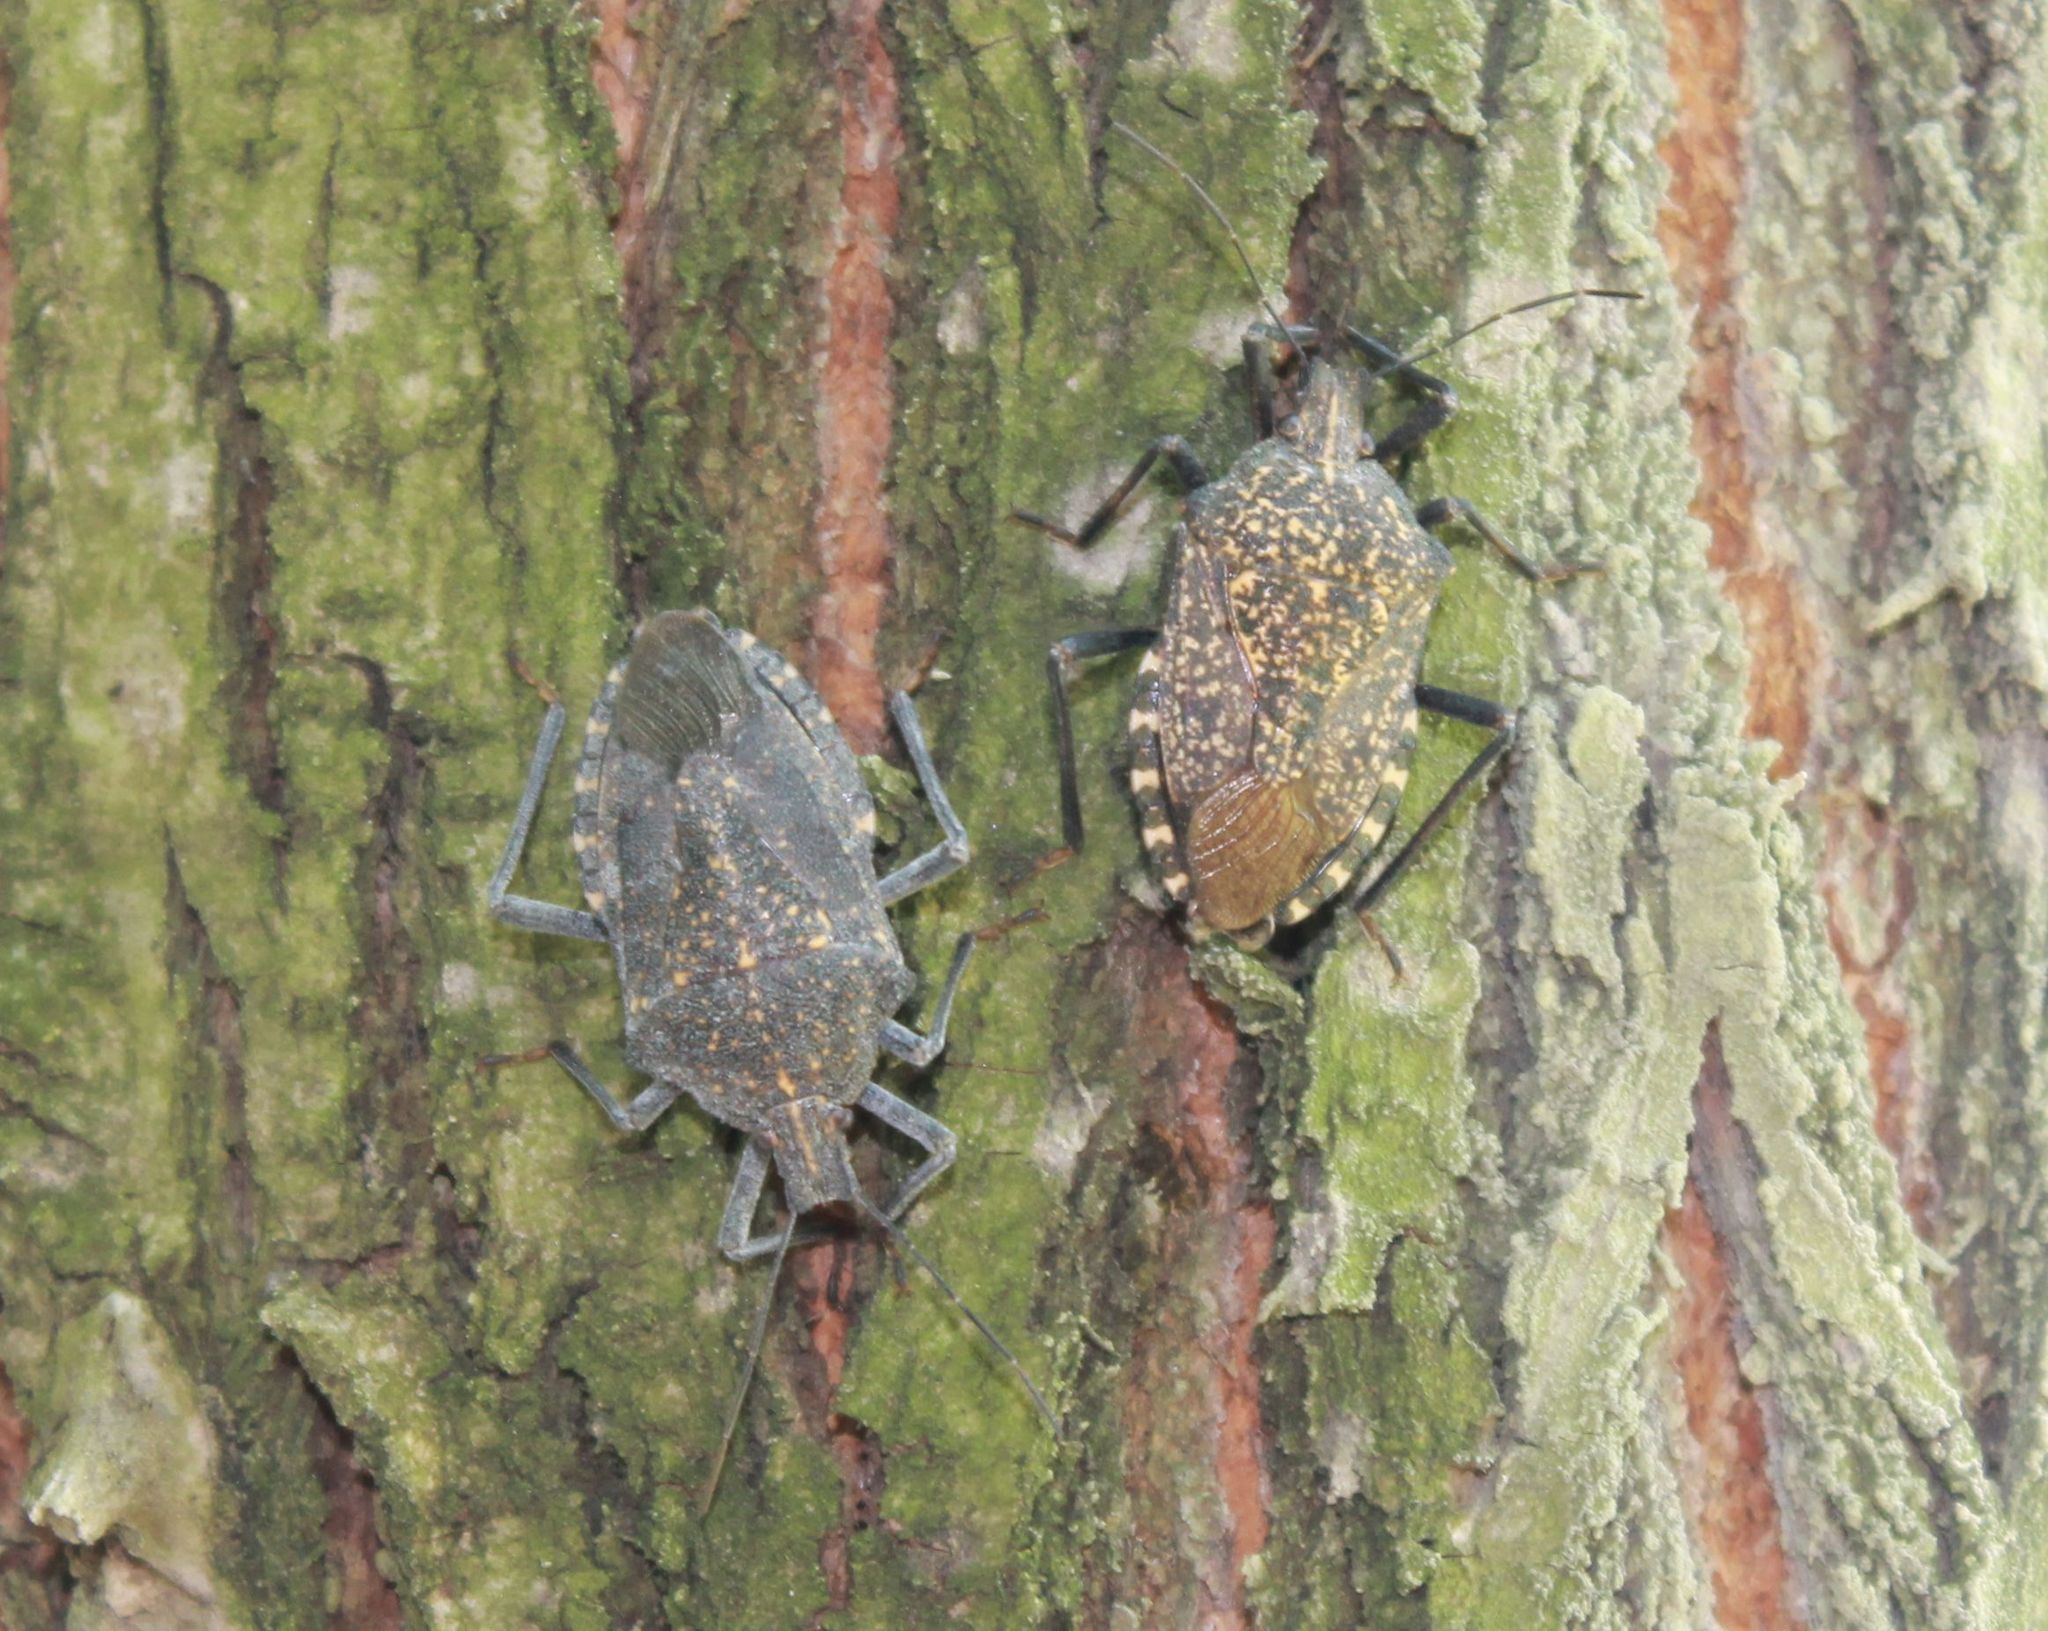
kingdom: Animalia
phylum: Arthropoda
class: Insecta
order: Hemiptera
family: Pentatomidae
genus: Apodiphus
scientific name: Apodiphus amygdali
